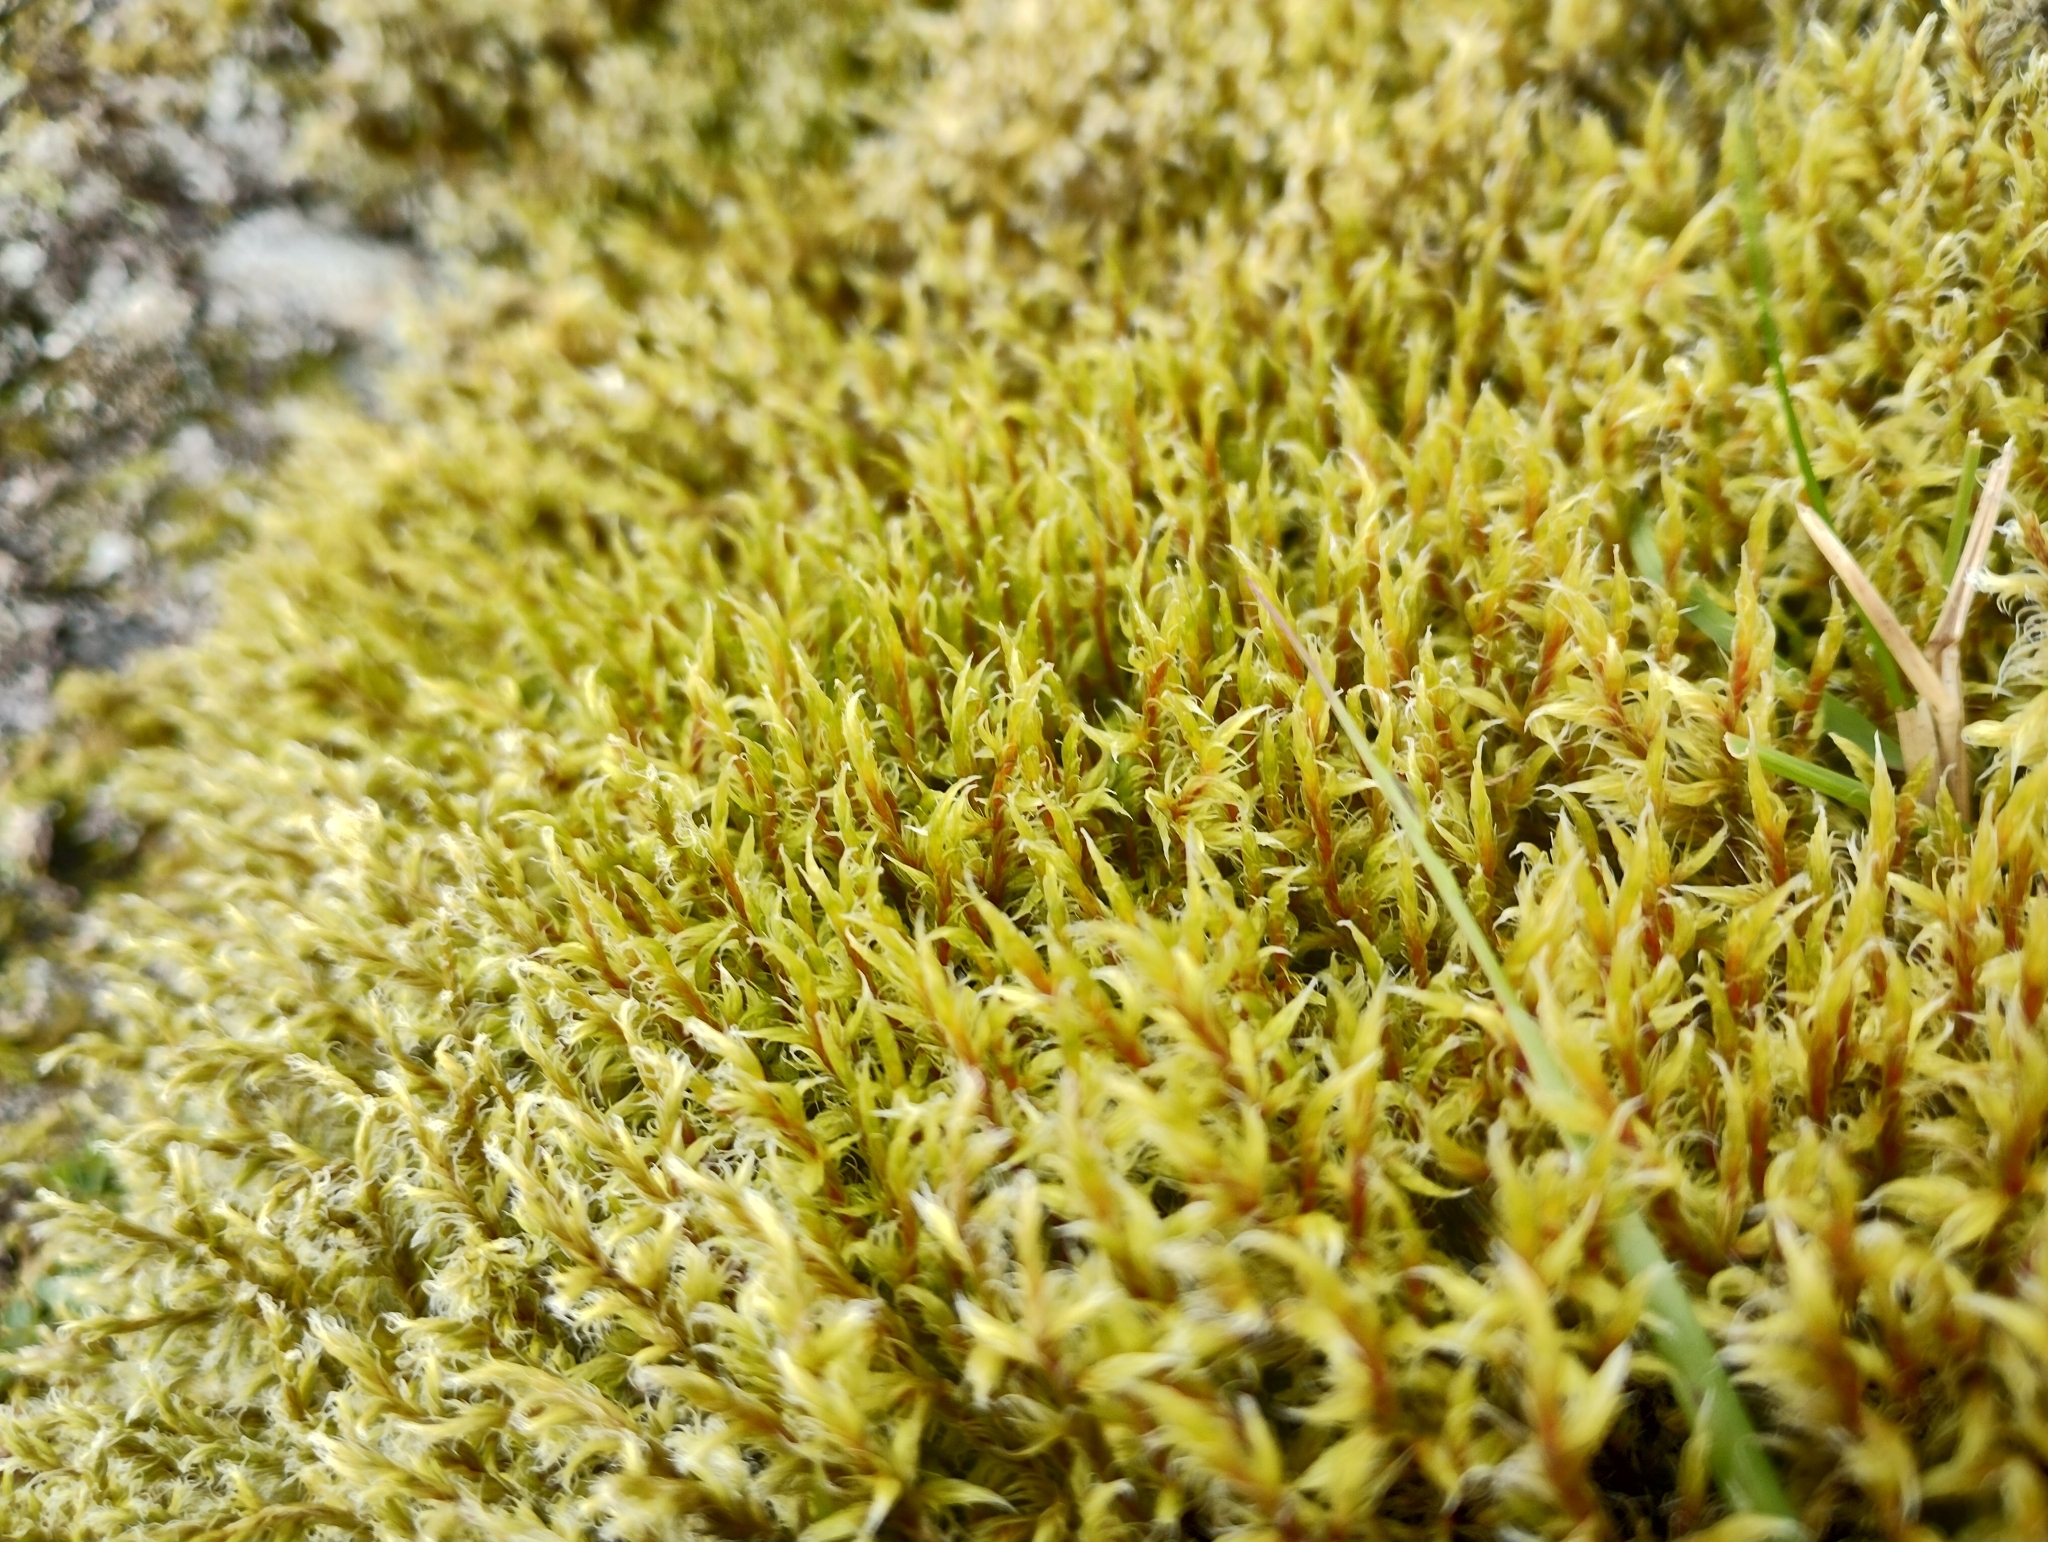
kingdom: Plantae
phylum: Bryophyta
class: Bryopsida
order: Grimmiales
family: Grimmiaceae
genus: Dilutineuron
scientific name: Dilutineuron fasciculare
